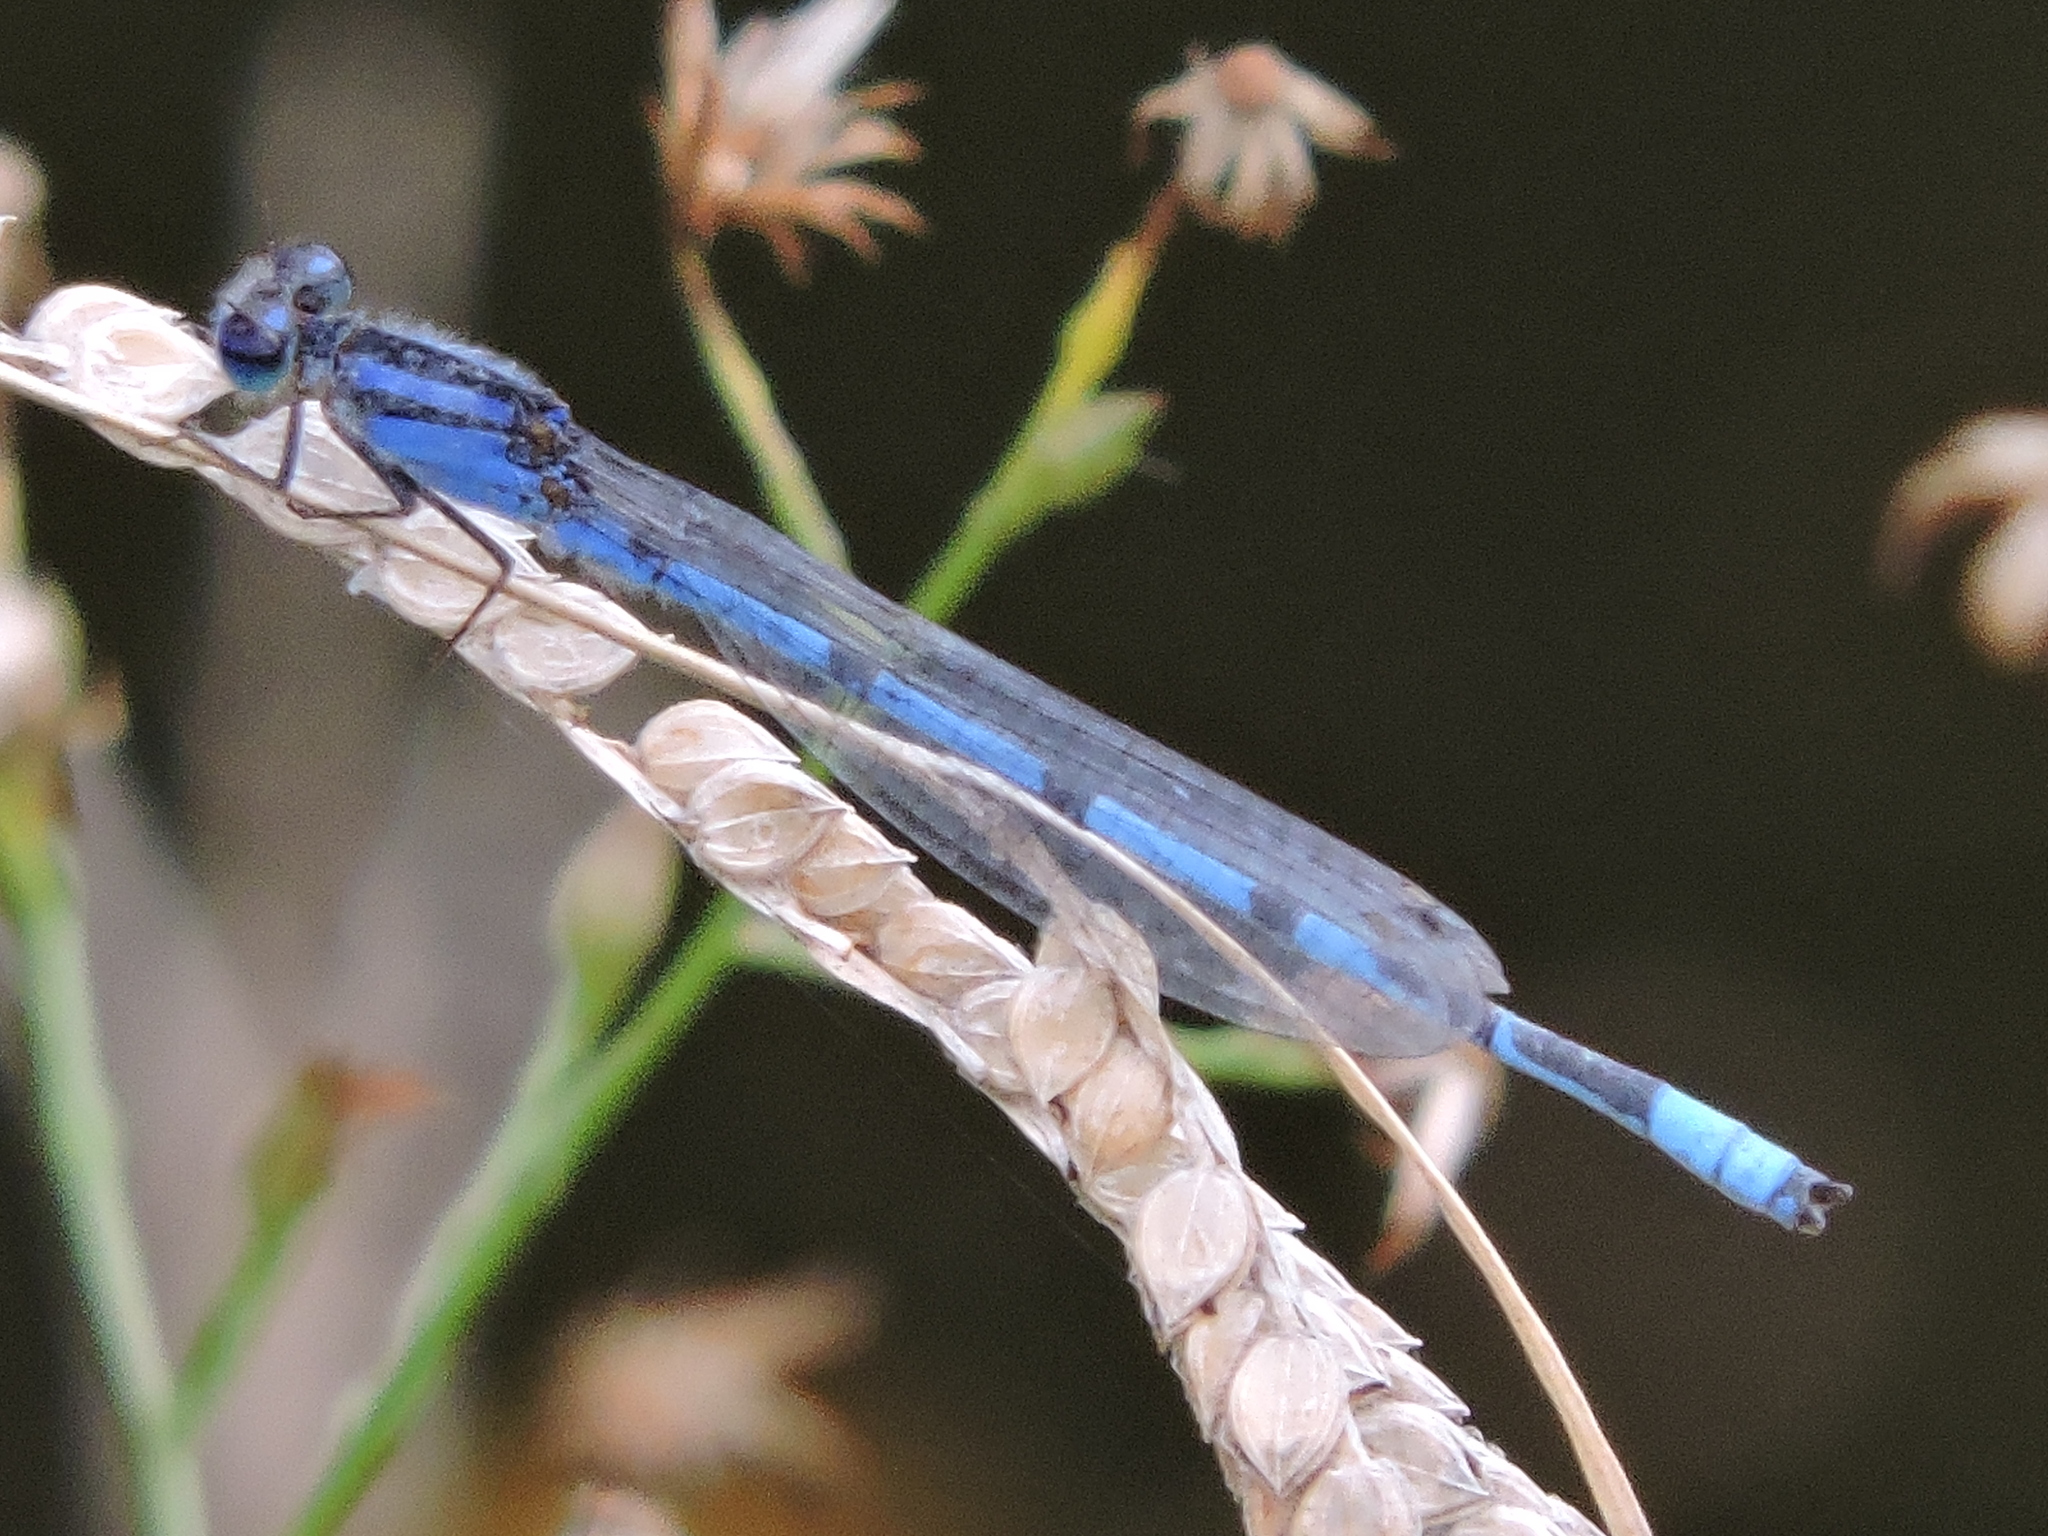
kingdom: Animalia
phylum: Arthropoda
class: Insecta
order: Odonata
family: Coenagrionidae
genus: Enallagma
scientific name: Enallagma civile
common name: Damselfly
